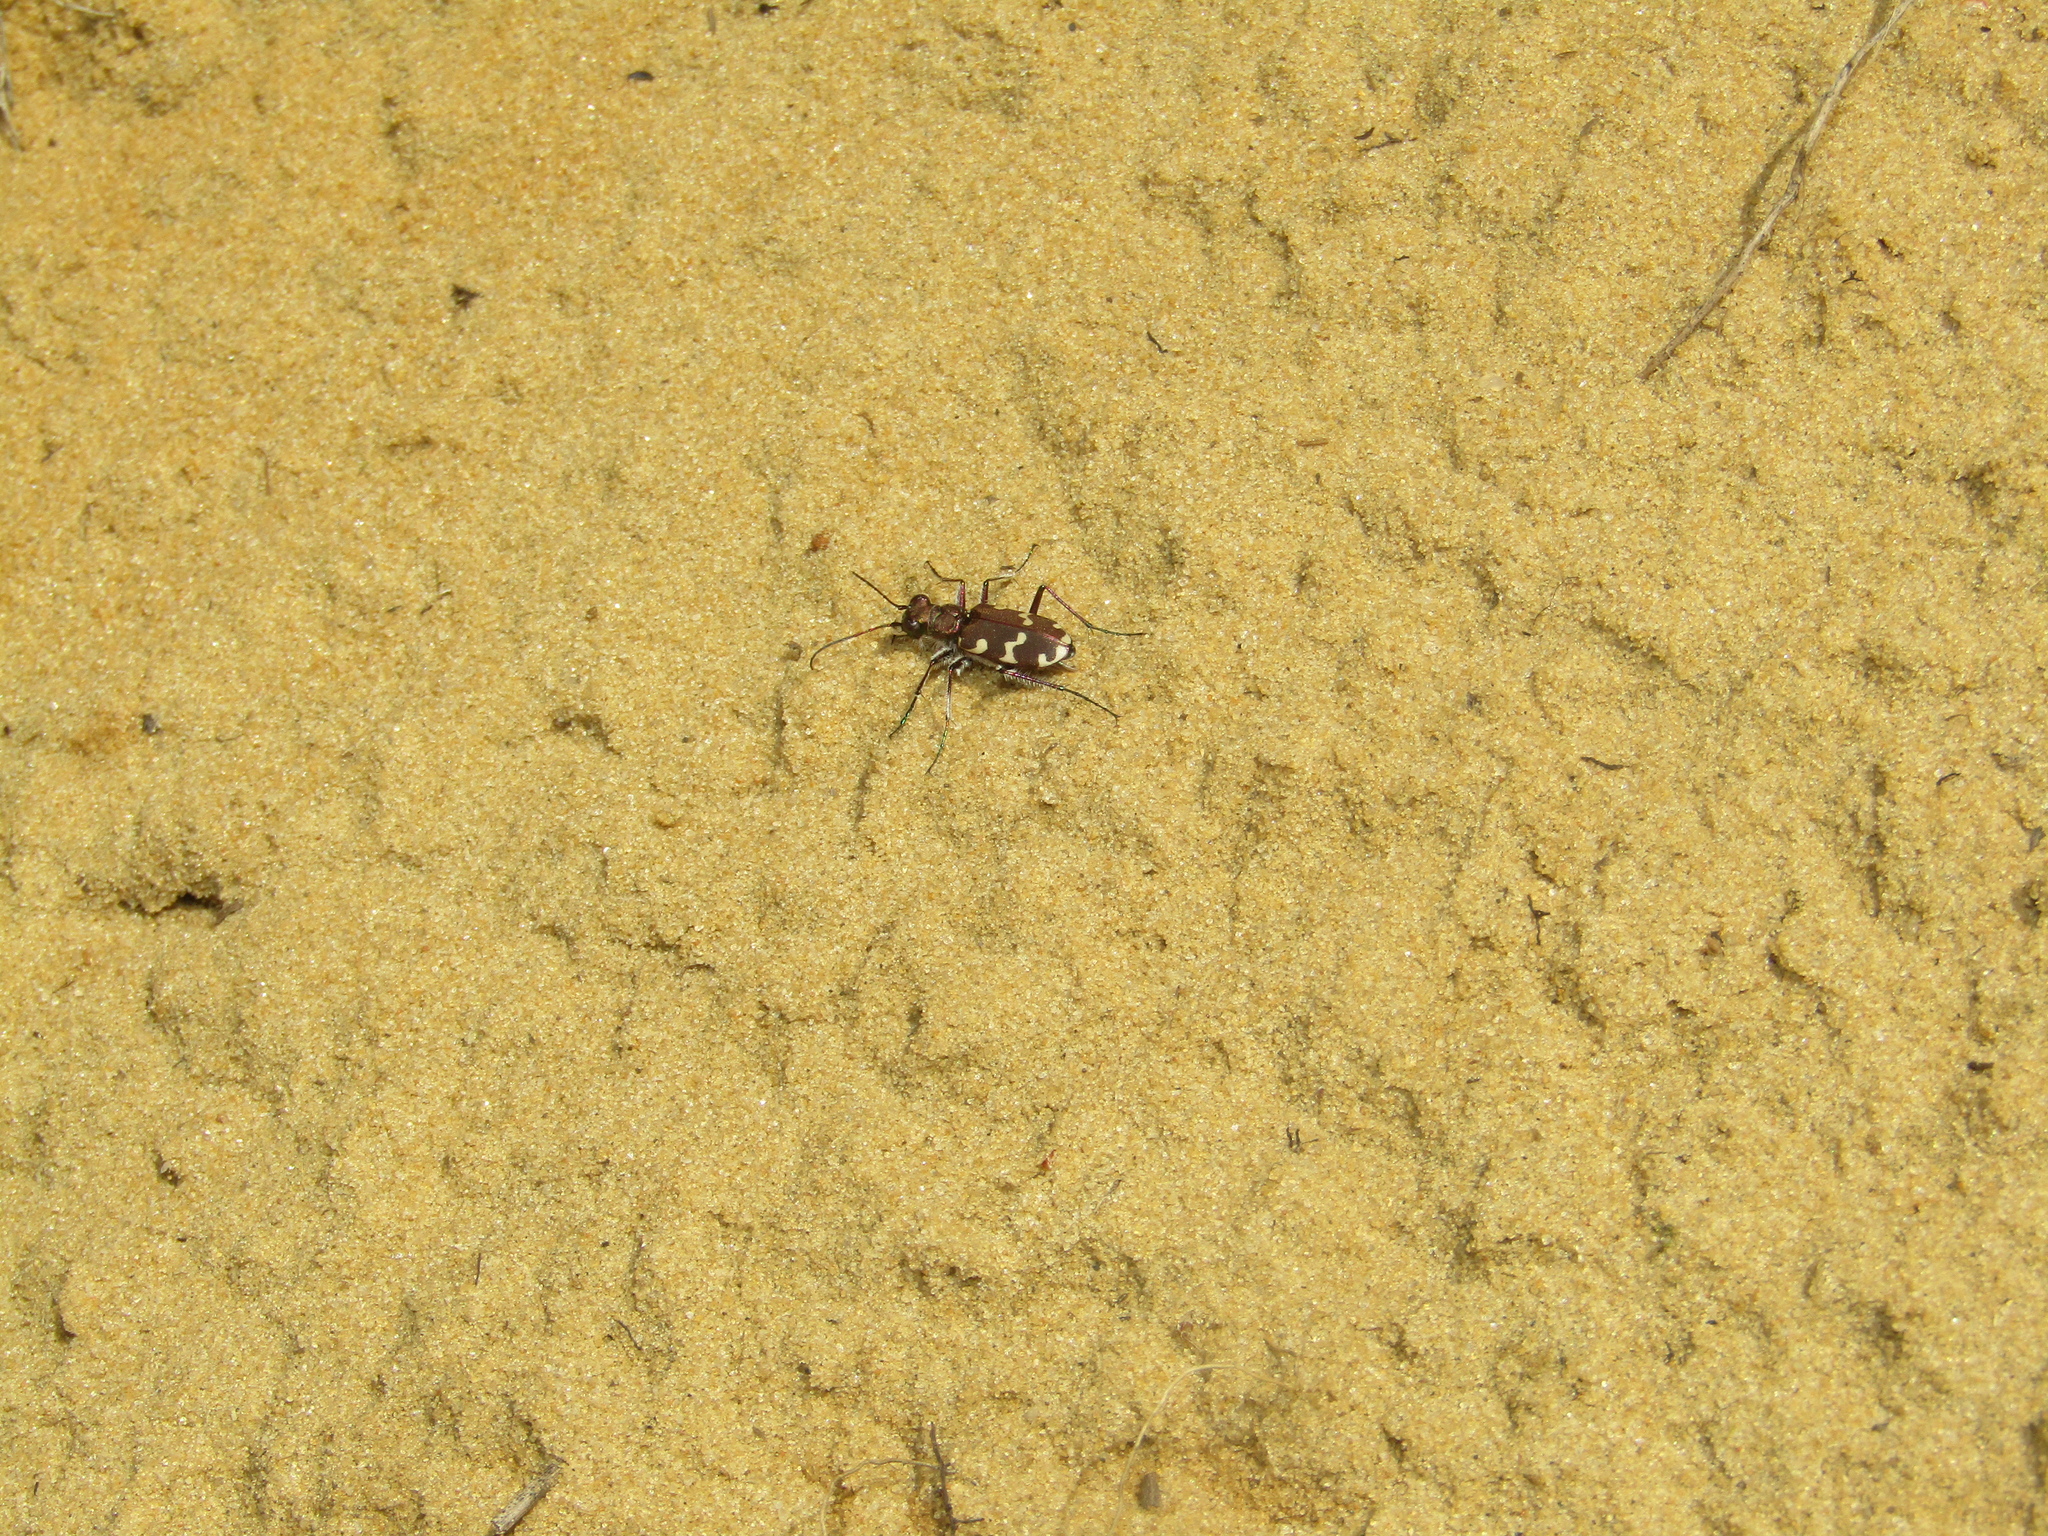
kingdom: Animalia
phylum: Arthropoda
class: Insecta
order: Coleoptera
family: Carabidae
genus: Cicindela
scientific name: Cicindela hybrida
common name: Northern dune tiger beetle
